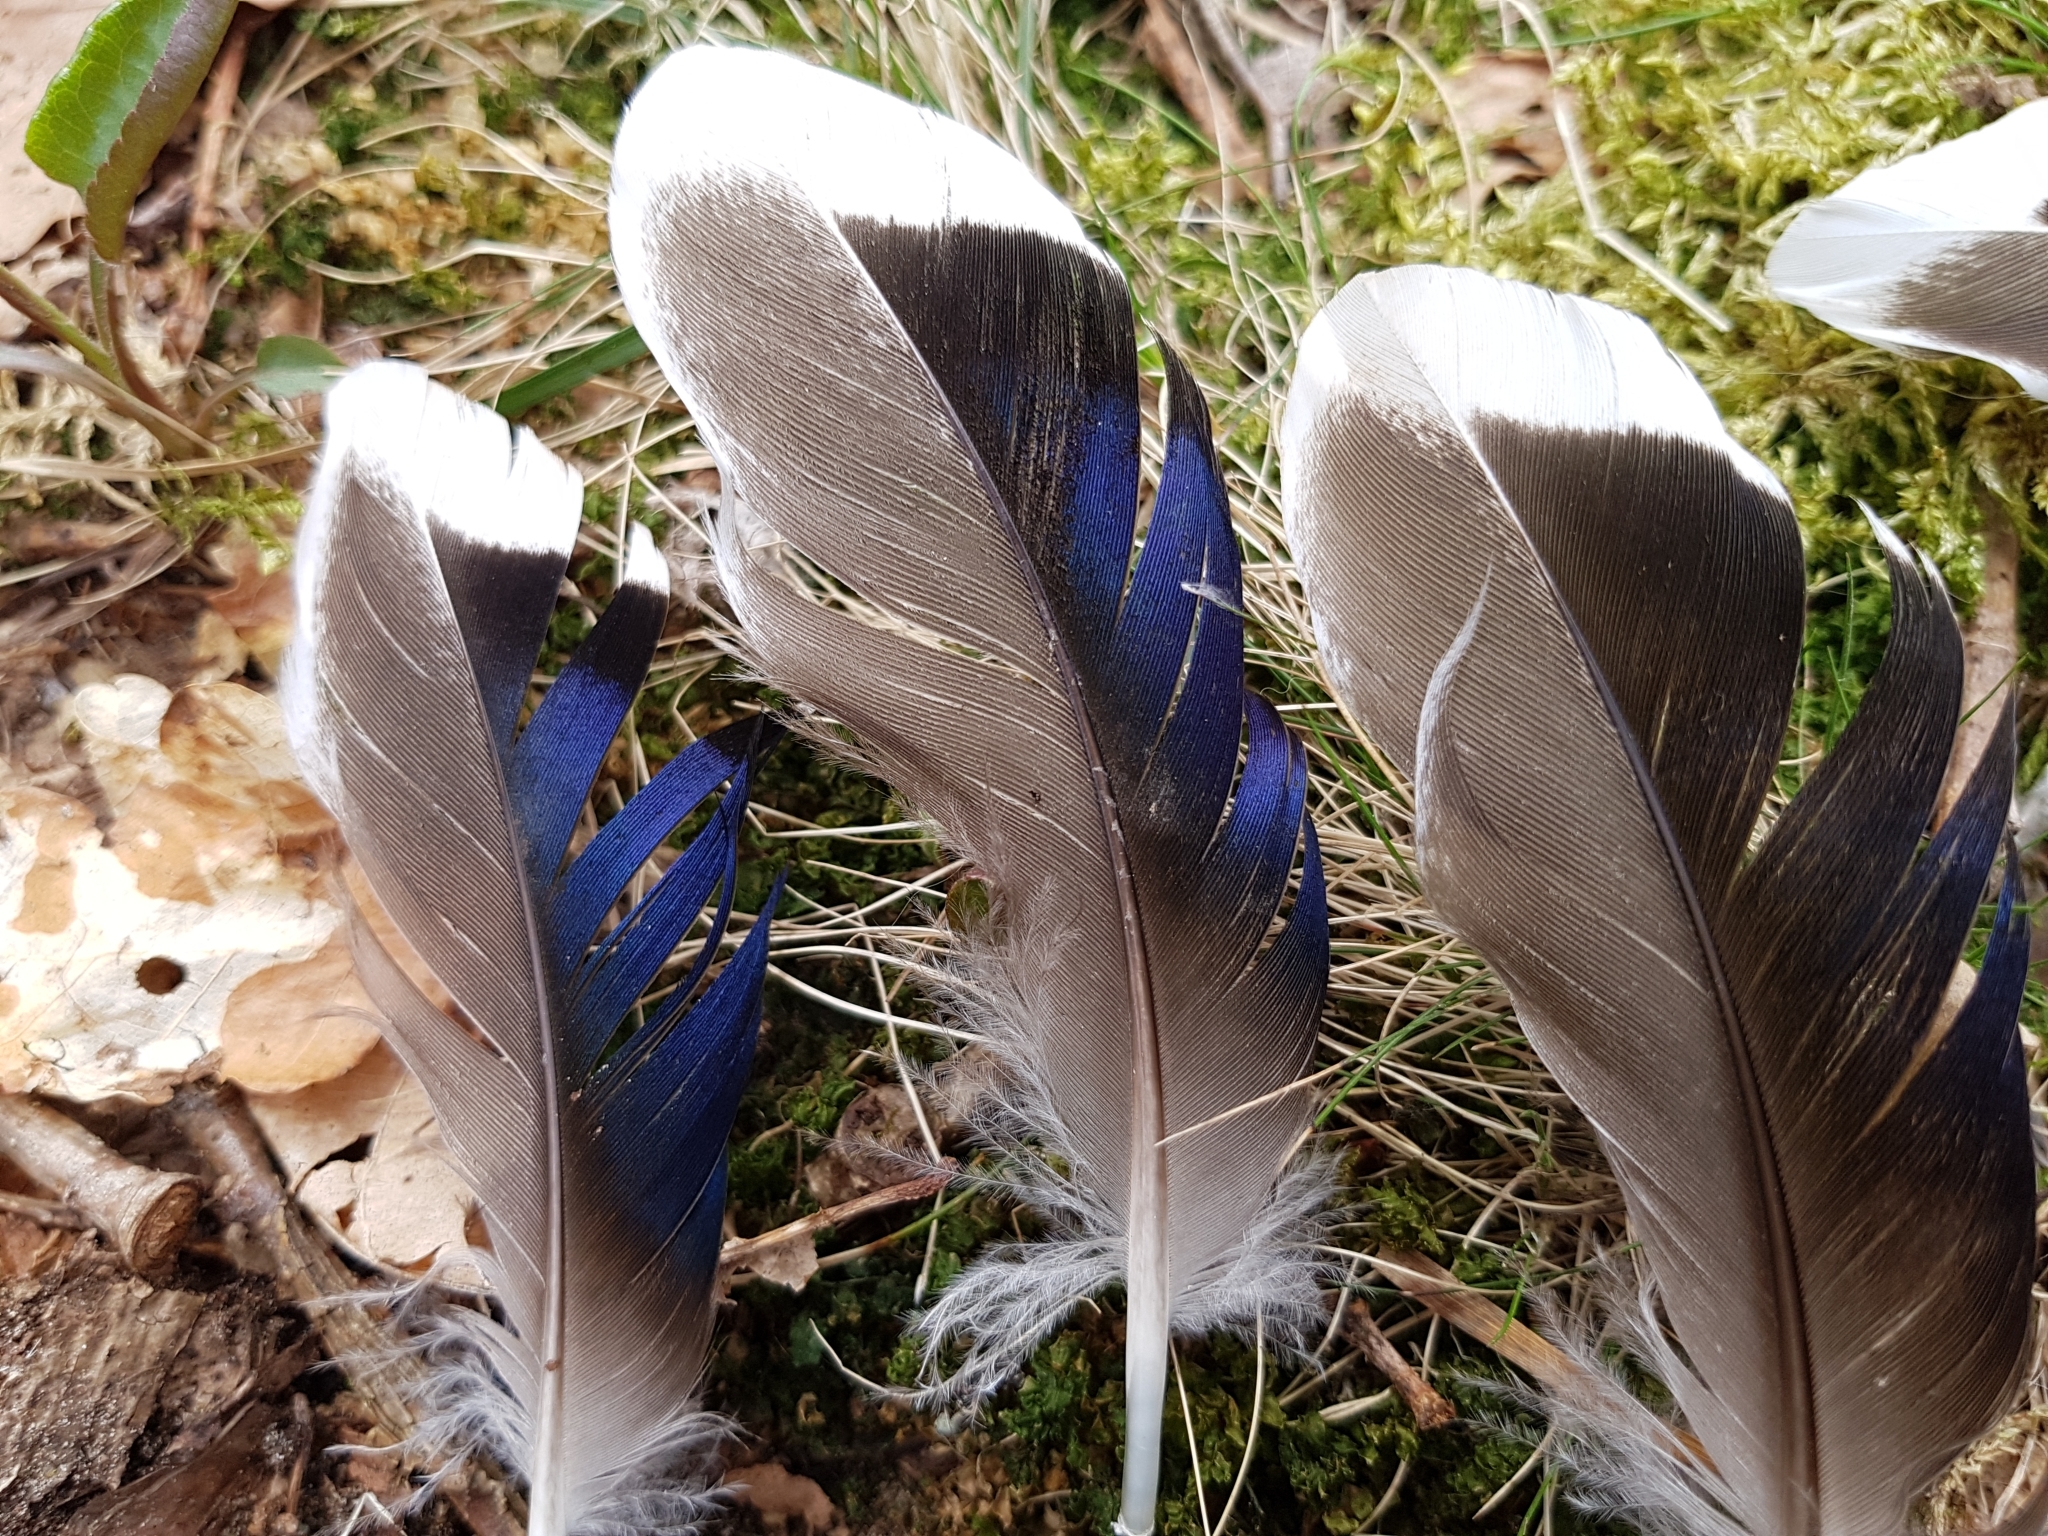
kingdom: Animalia
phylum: Chordata
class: Aves
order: Anseriformes
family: Anatidae
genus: Anas
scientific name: Anas platyrhynchos
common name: Mallard
